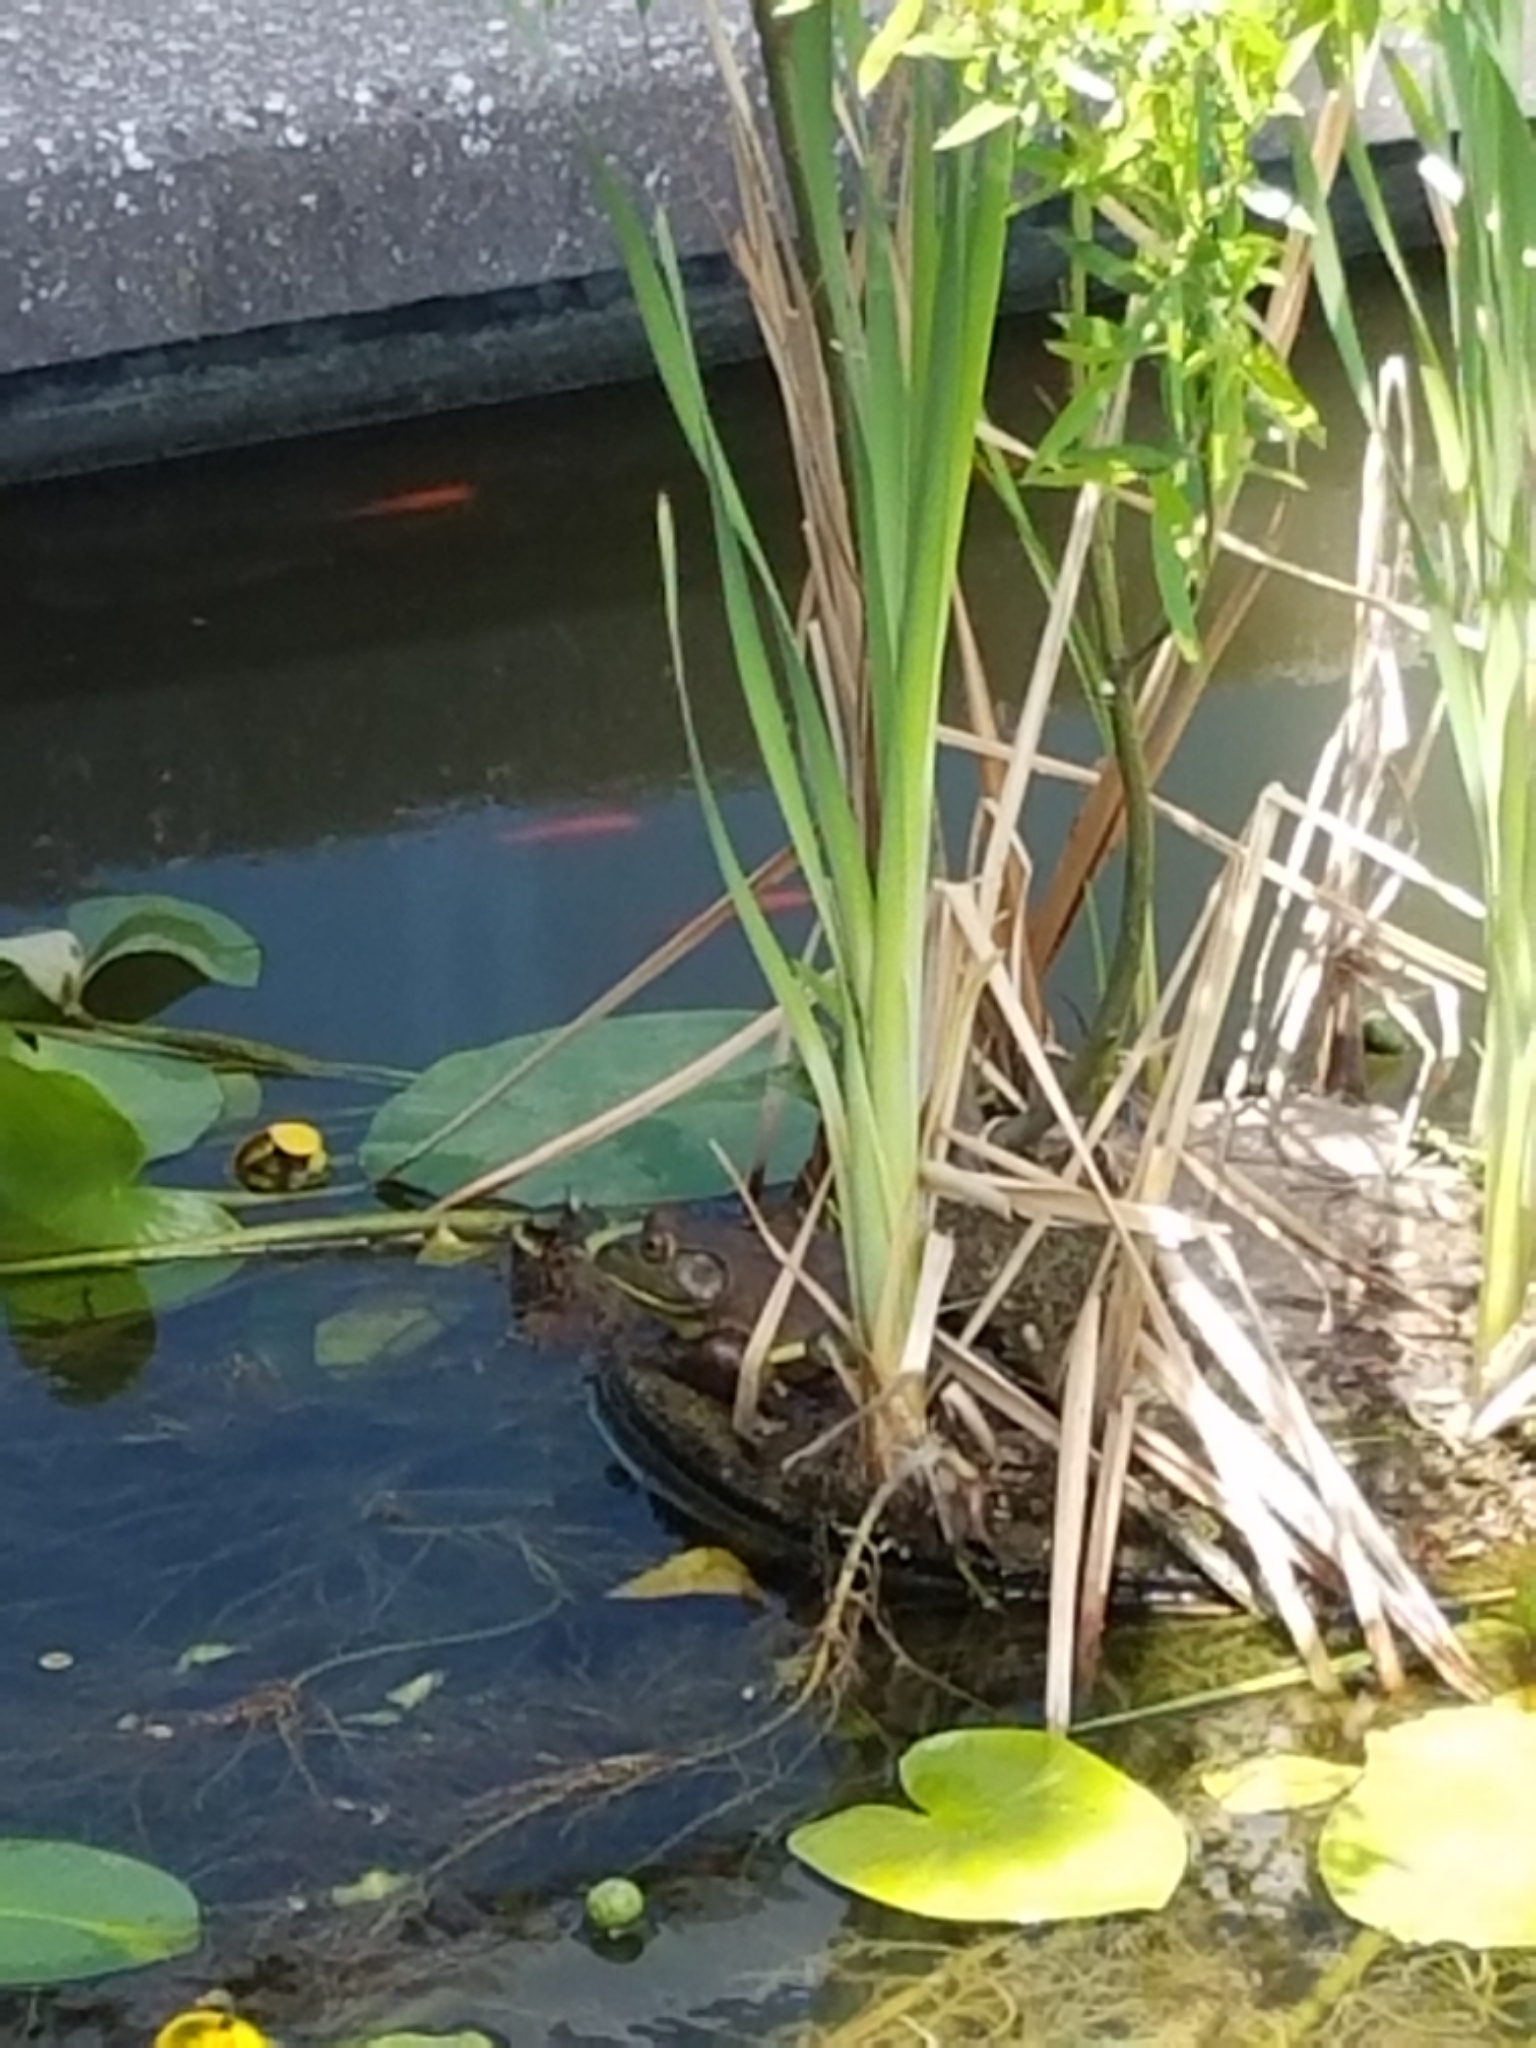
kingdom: Animalia
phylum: Chordata
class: Amphibia
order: Anura
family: Ranidae
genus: Lithobates
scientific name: Lithobates catesbeianus
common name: American bullfrog
